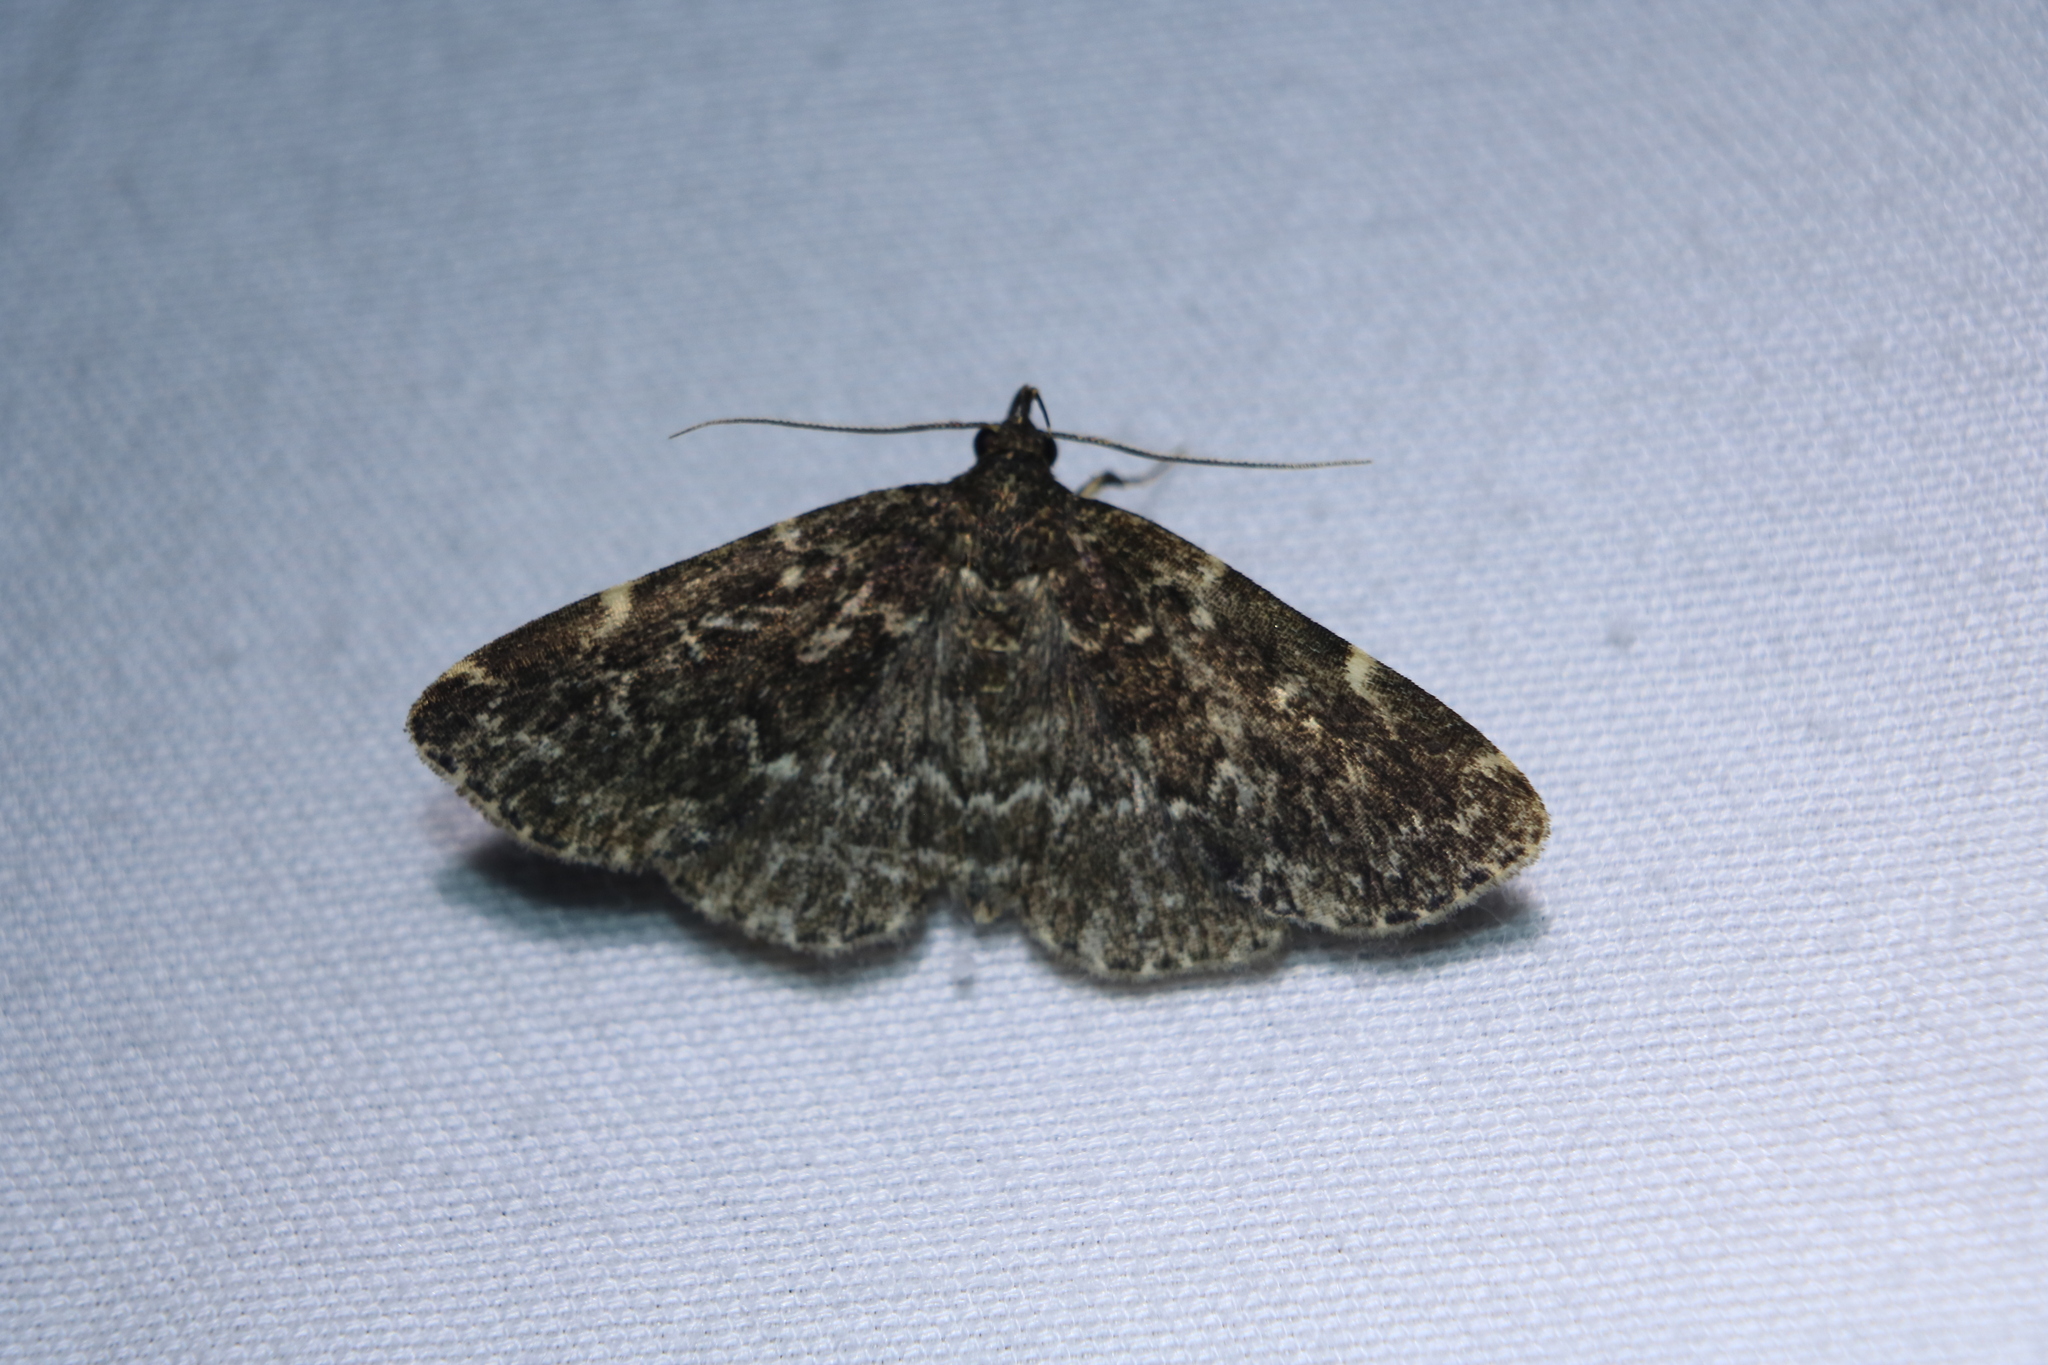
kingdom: Animalia
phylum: Arthropoda
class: Insecta
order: Lepidoptera
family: Erebidae
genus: Idia
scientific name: Idia scobialis
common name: Smoky idia moth
